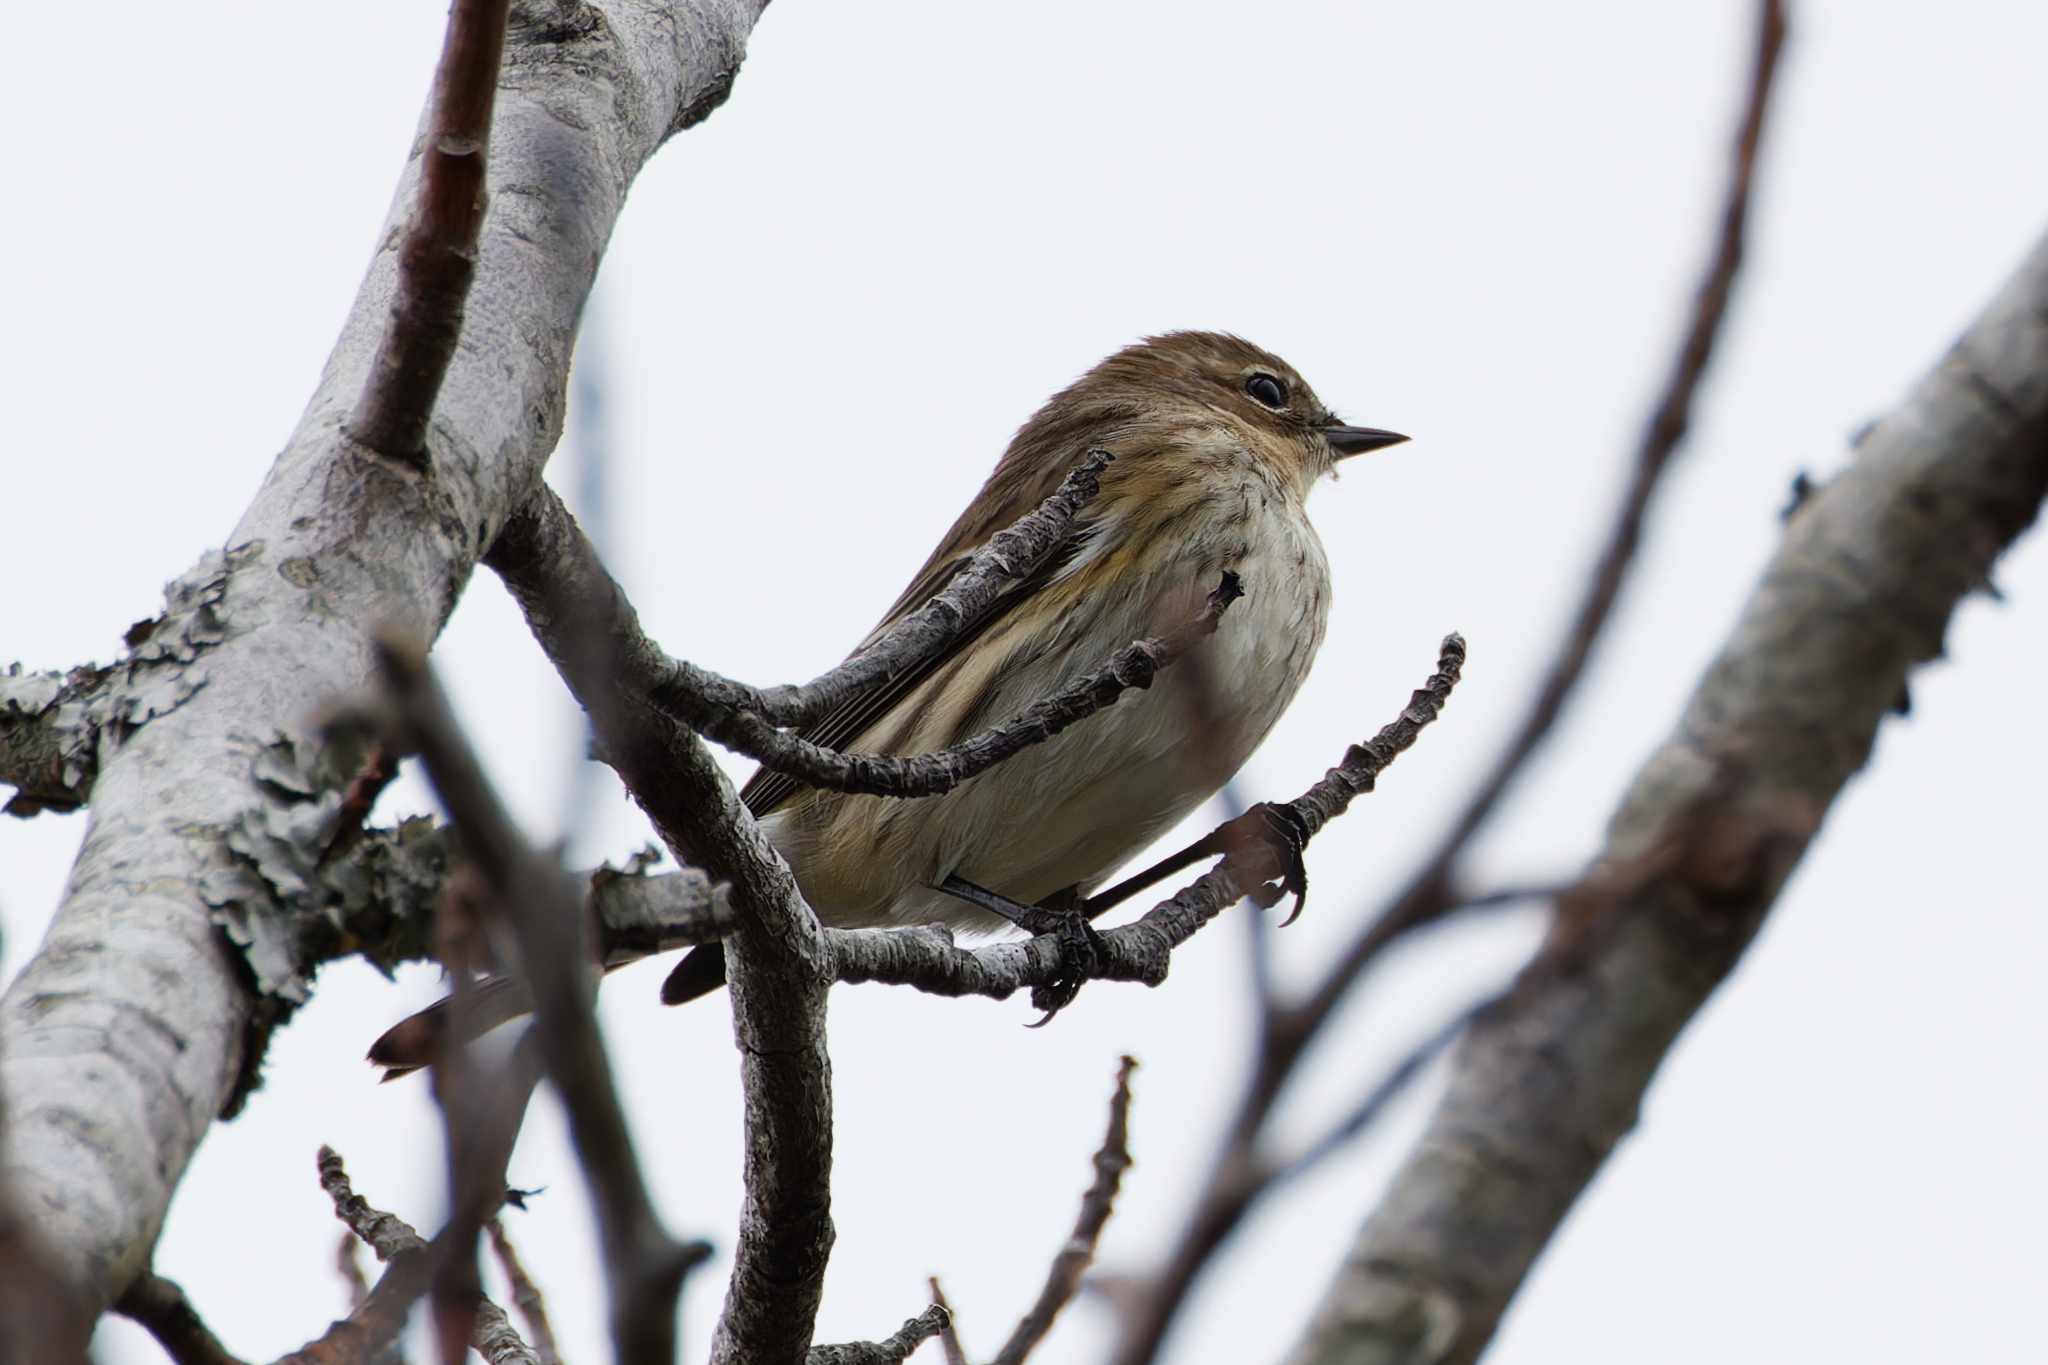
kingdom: Animalia
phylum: Chordata
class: Aves
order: Passeriformes
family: Parulidae
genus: Setophaga
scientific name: Setophaga coronata
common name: Myrtle warbler
